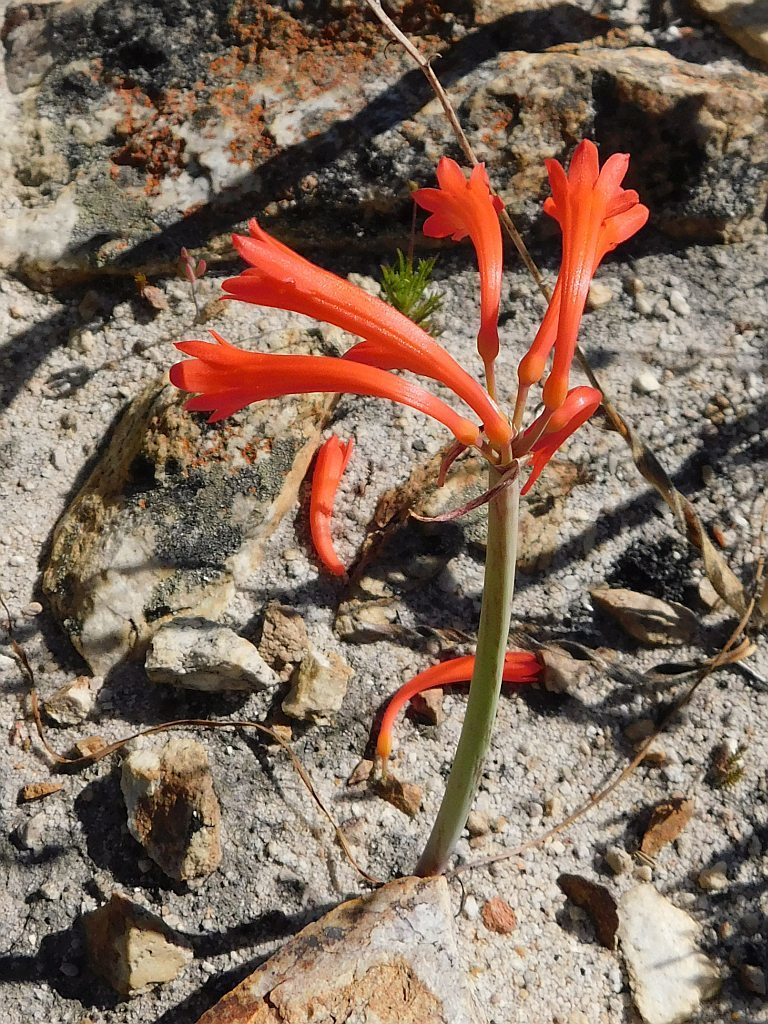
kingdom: Plantae
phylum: Tracheophyta
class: Liliopsida
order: Asparagales
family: Amaryllidaceae
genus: Cyrtanthus
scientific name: Cyrtanthus collinus
